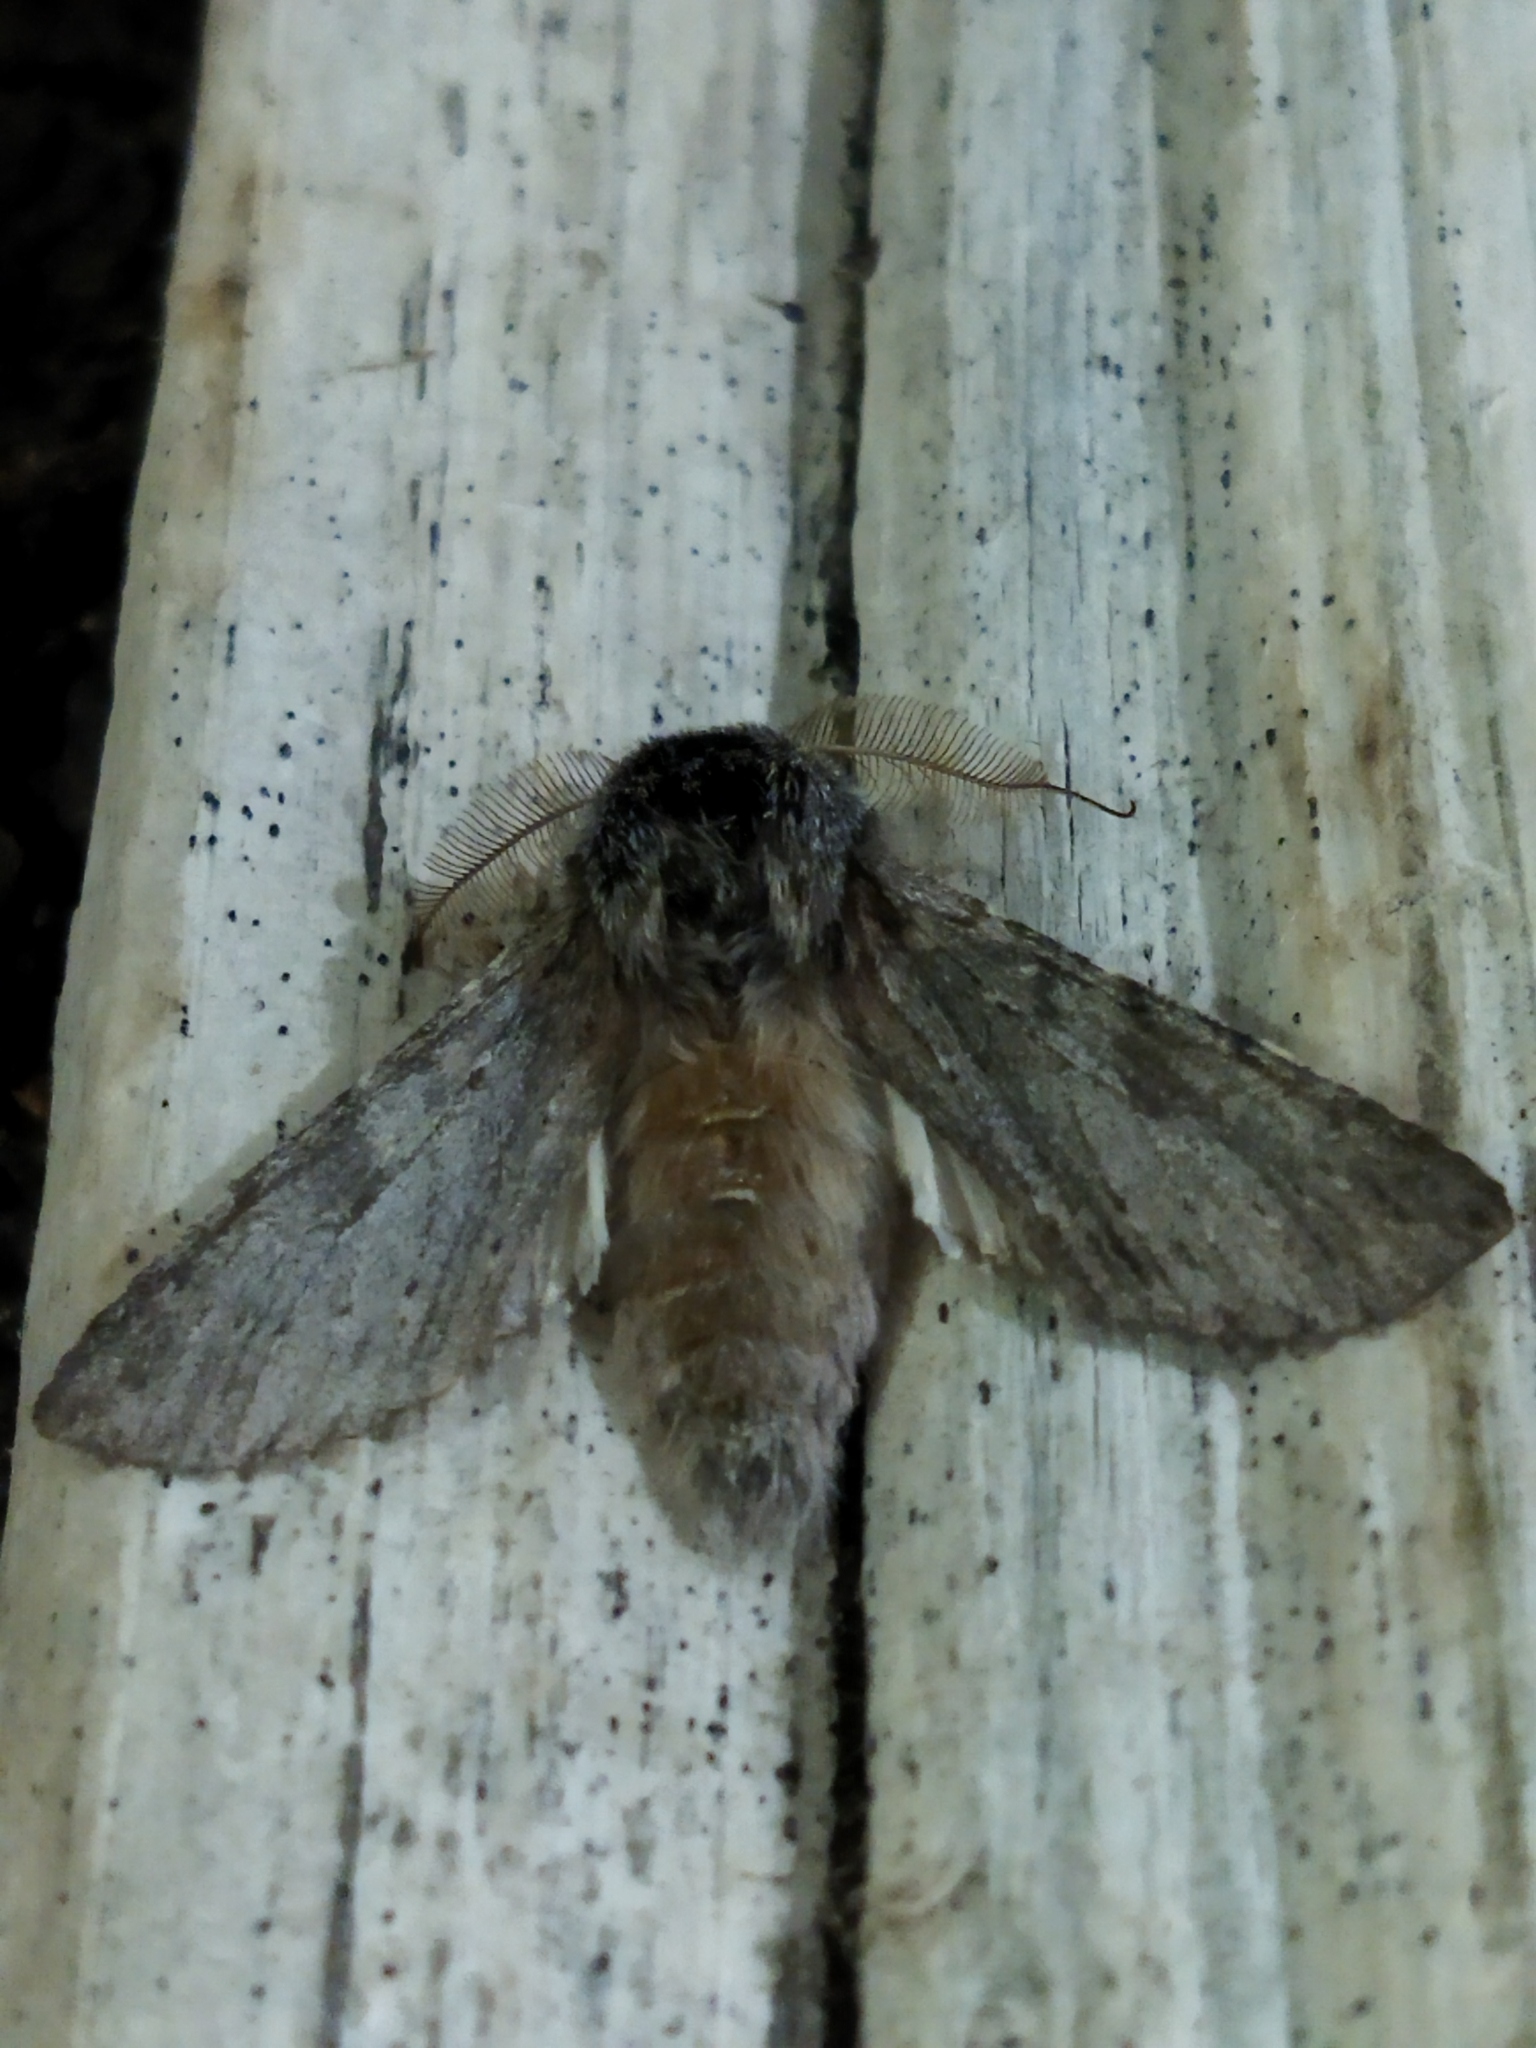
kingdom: Animalia
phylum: Arthropoda
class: Insecta
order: Lepidoptera
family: Notodontidae
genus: Dicranura
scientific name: Dicranura ulmi
